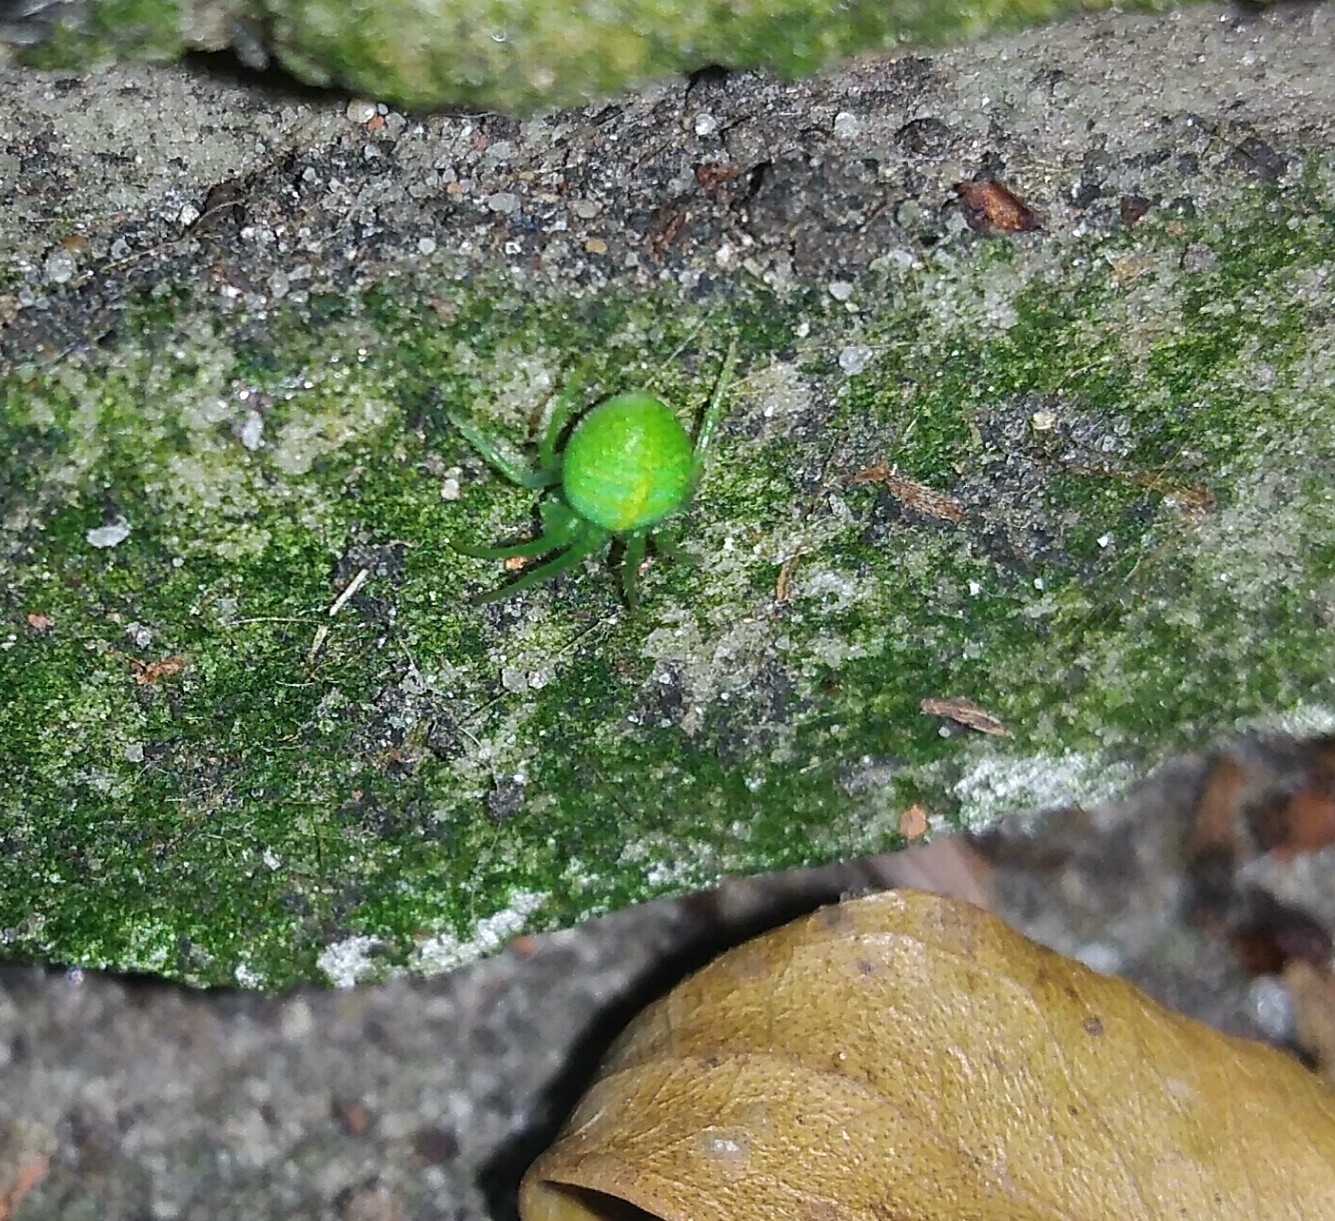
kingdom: Animalia
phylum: Arthropoda
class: Arachnida
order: Araneae
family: Araneidae
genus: Araneus
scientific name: Araneus uniformis
